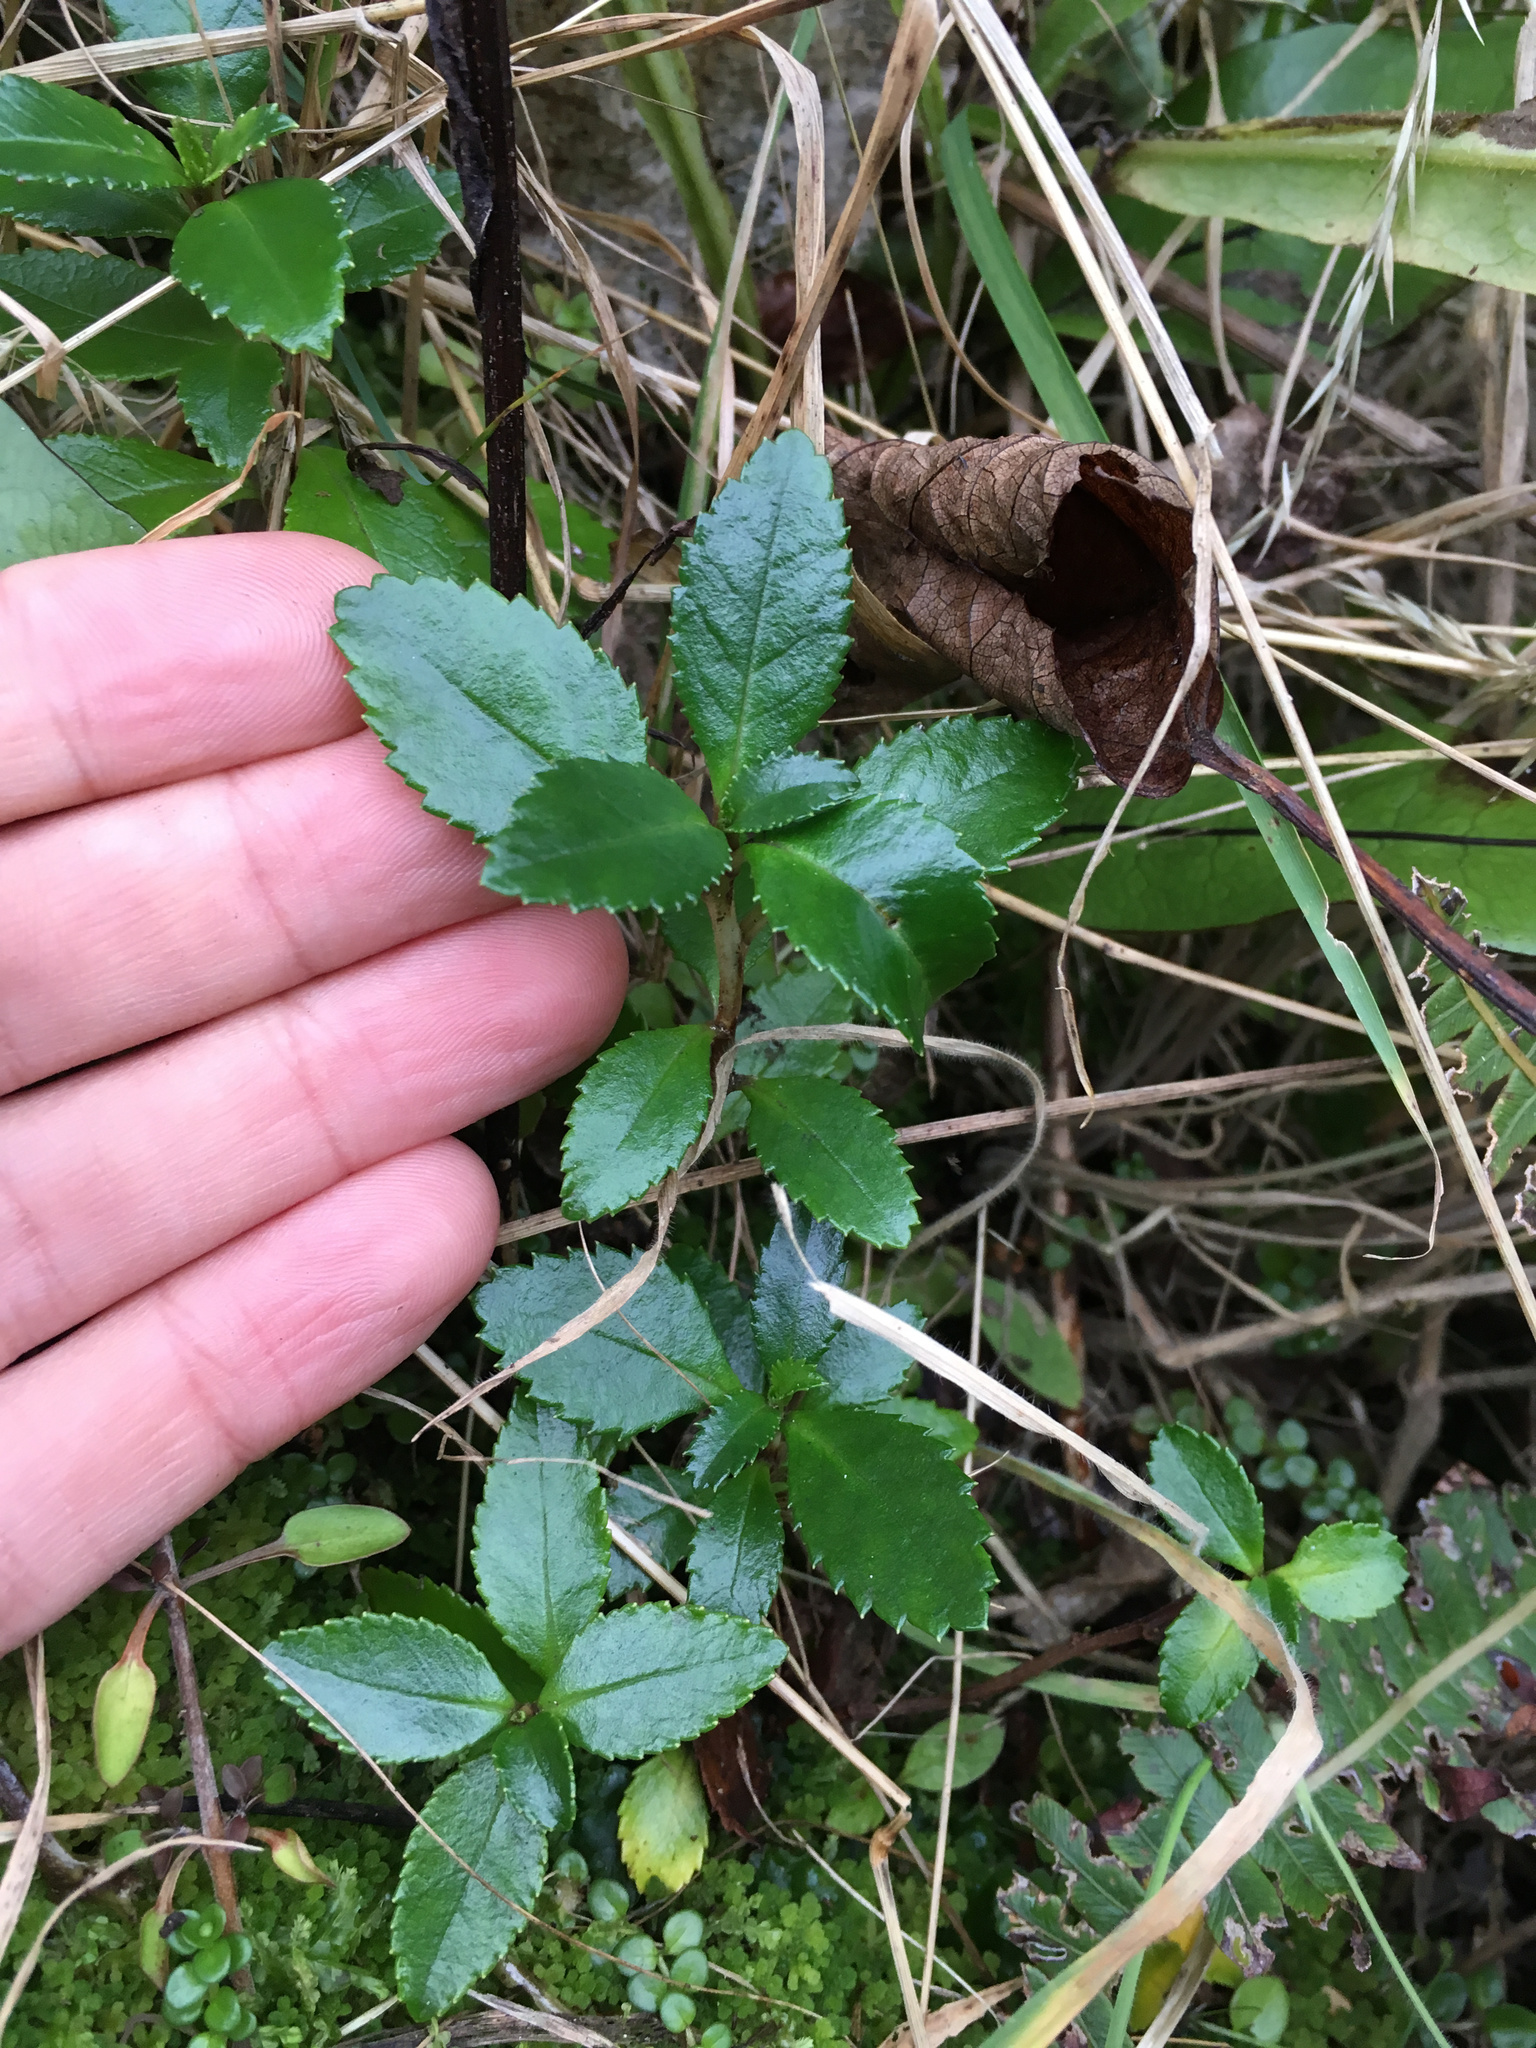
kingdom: Plantae
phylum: Tracheophyta
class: Magnoliopsida
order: Escalloniales
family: Escalloniaceae
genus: Escallonia
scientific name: Escallonia rubra
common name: Redclaws
